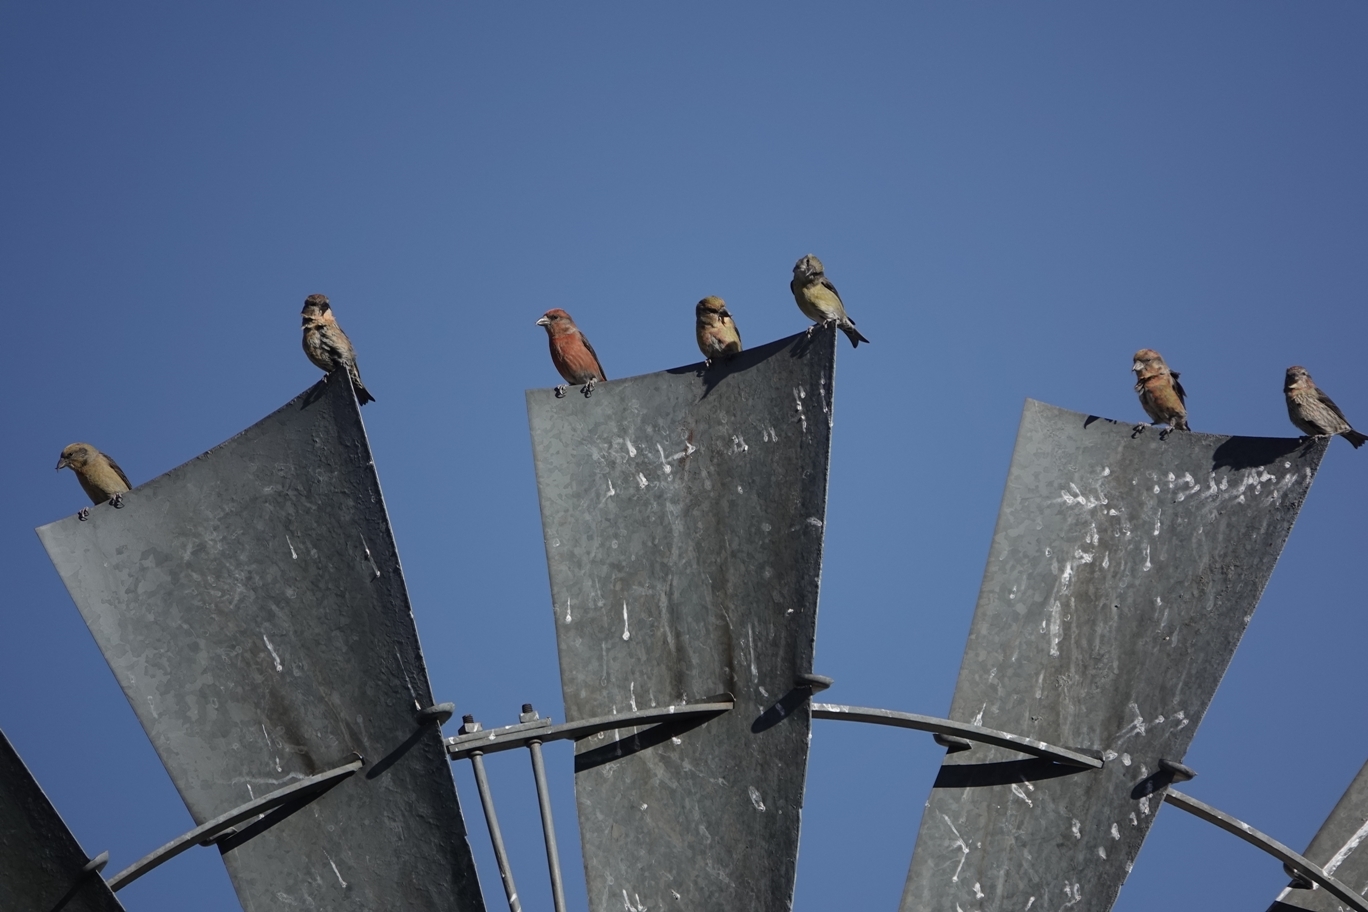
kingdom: Animalia
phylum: Chordata
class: Aves
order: Passeriformes
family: Fringillidae
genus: Loxia
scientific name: Loxia curvirostra
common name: Red crossbill
